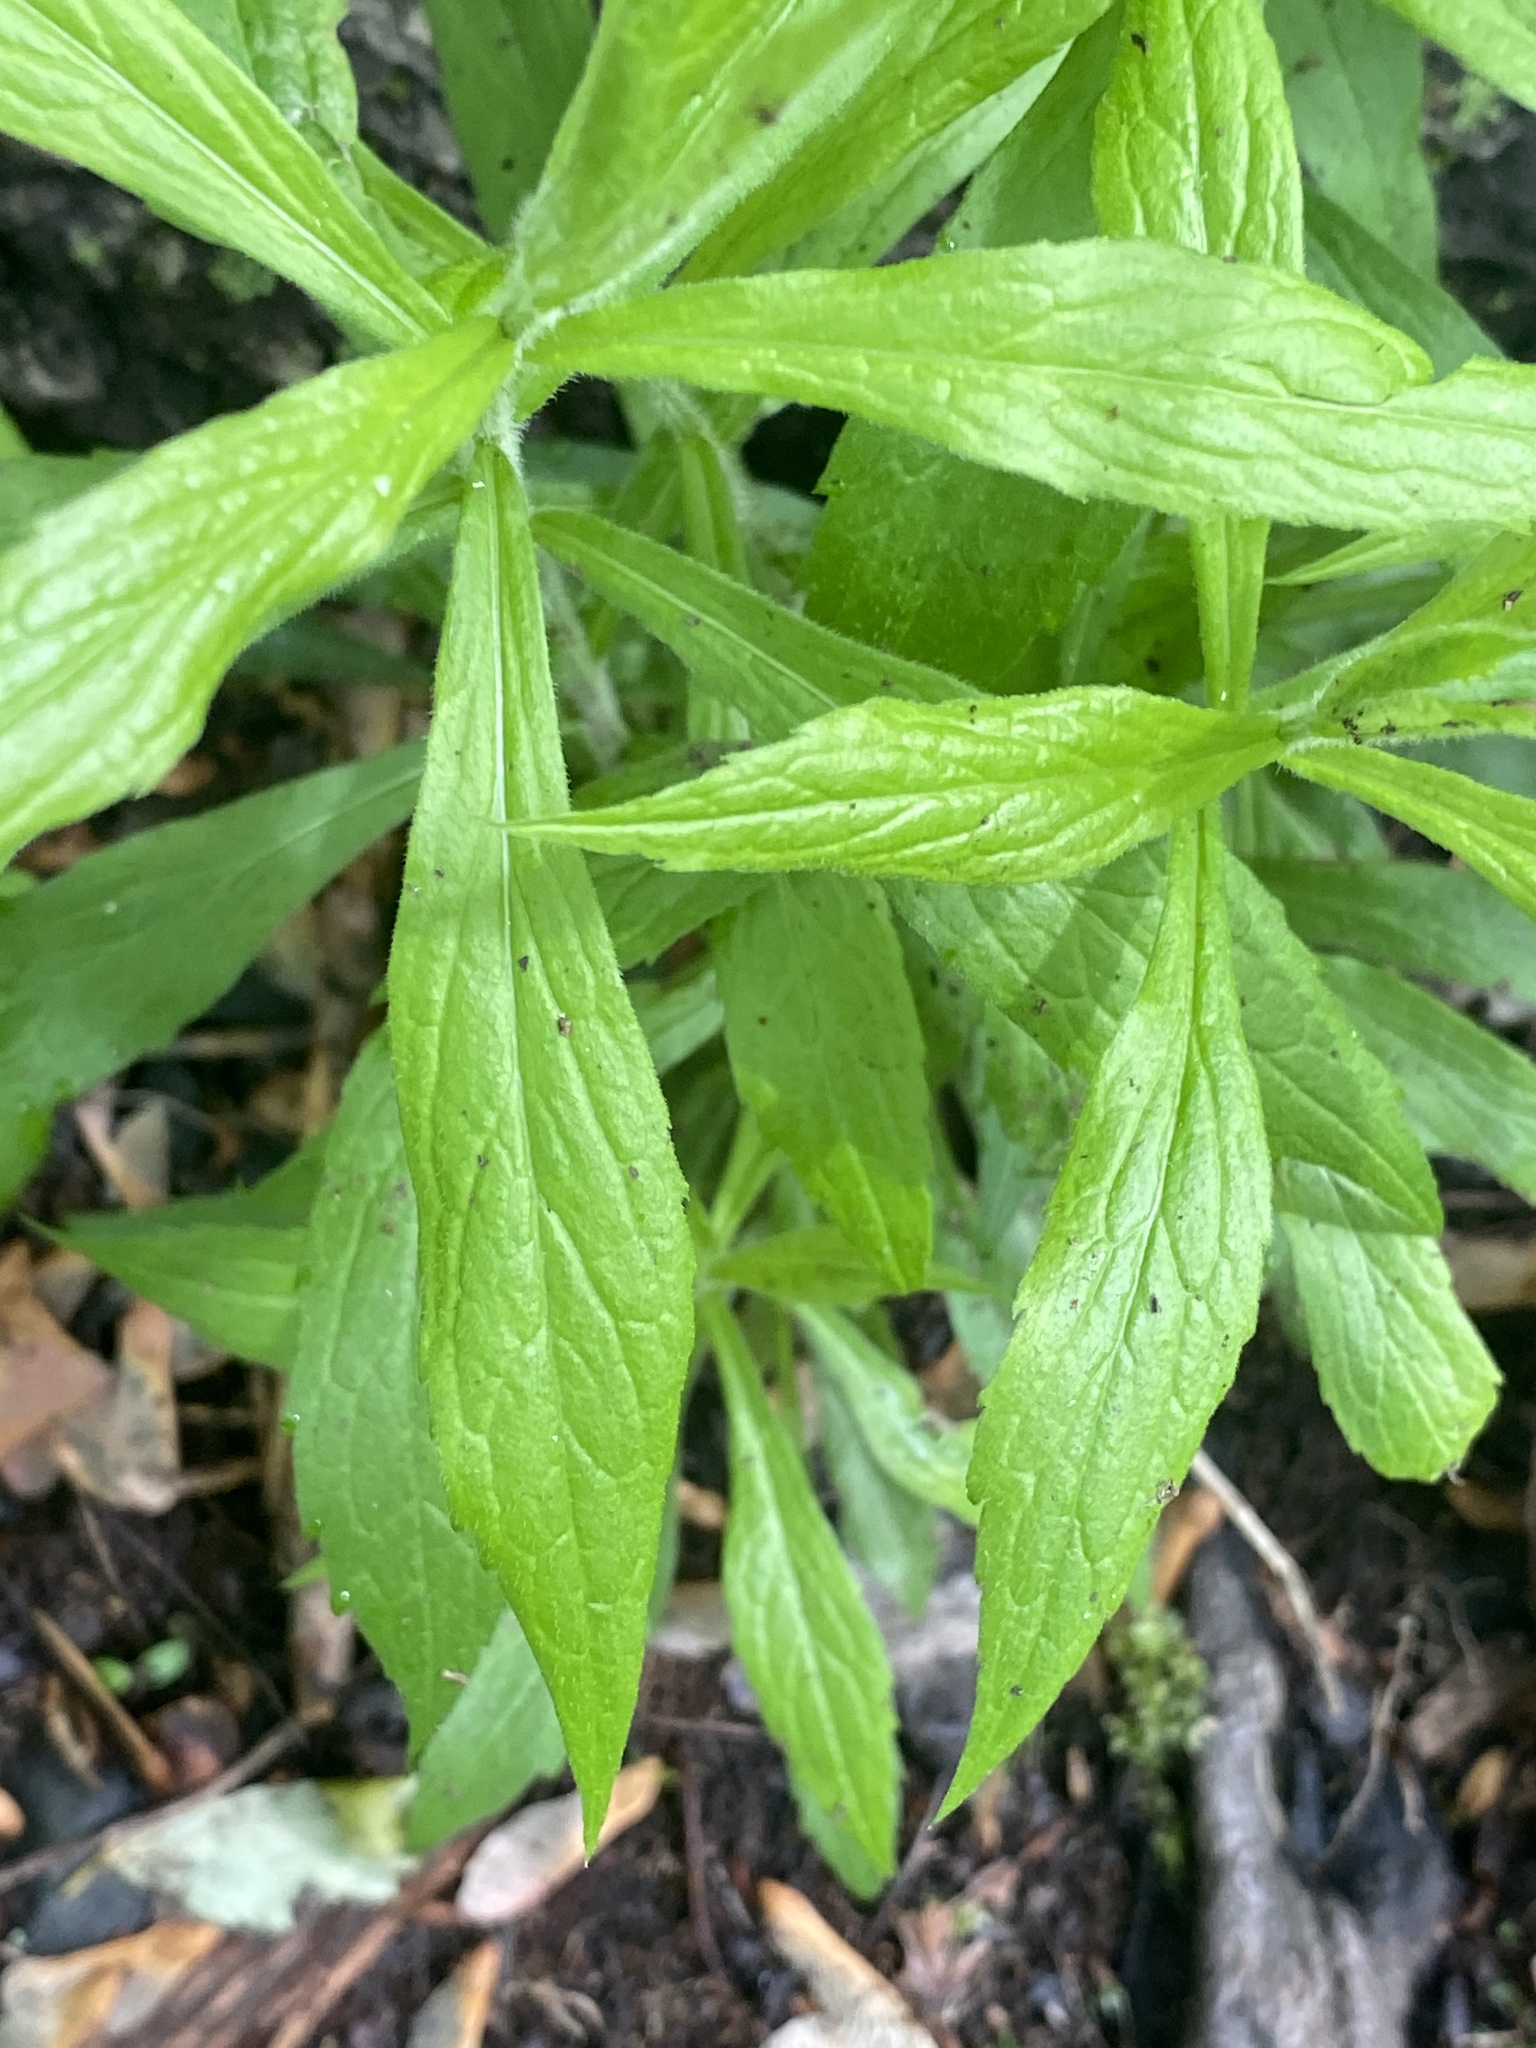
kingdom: Plantae
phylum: Tracheophyta
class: Magnoliopsida
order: Asterales
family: Asteraceae
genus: Solidago
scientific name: Solidago rugosa
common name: Rough-stemmed goldenrod
